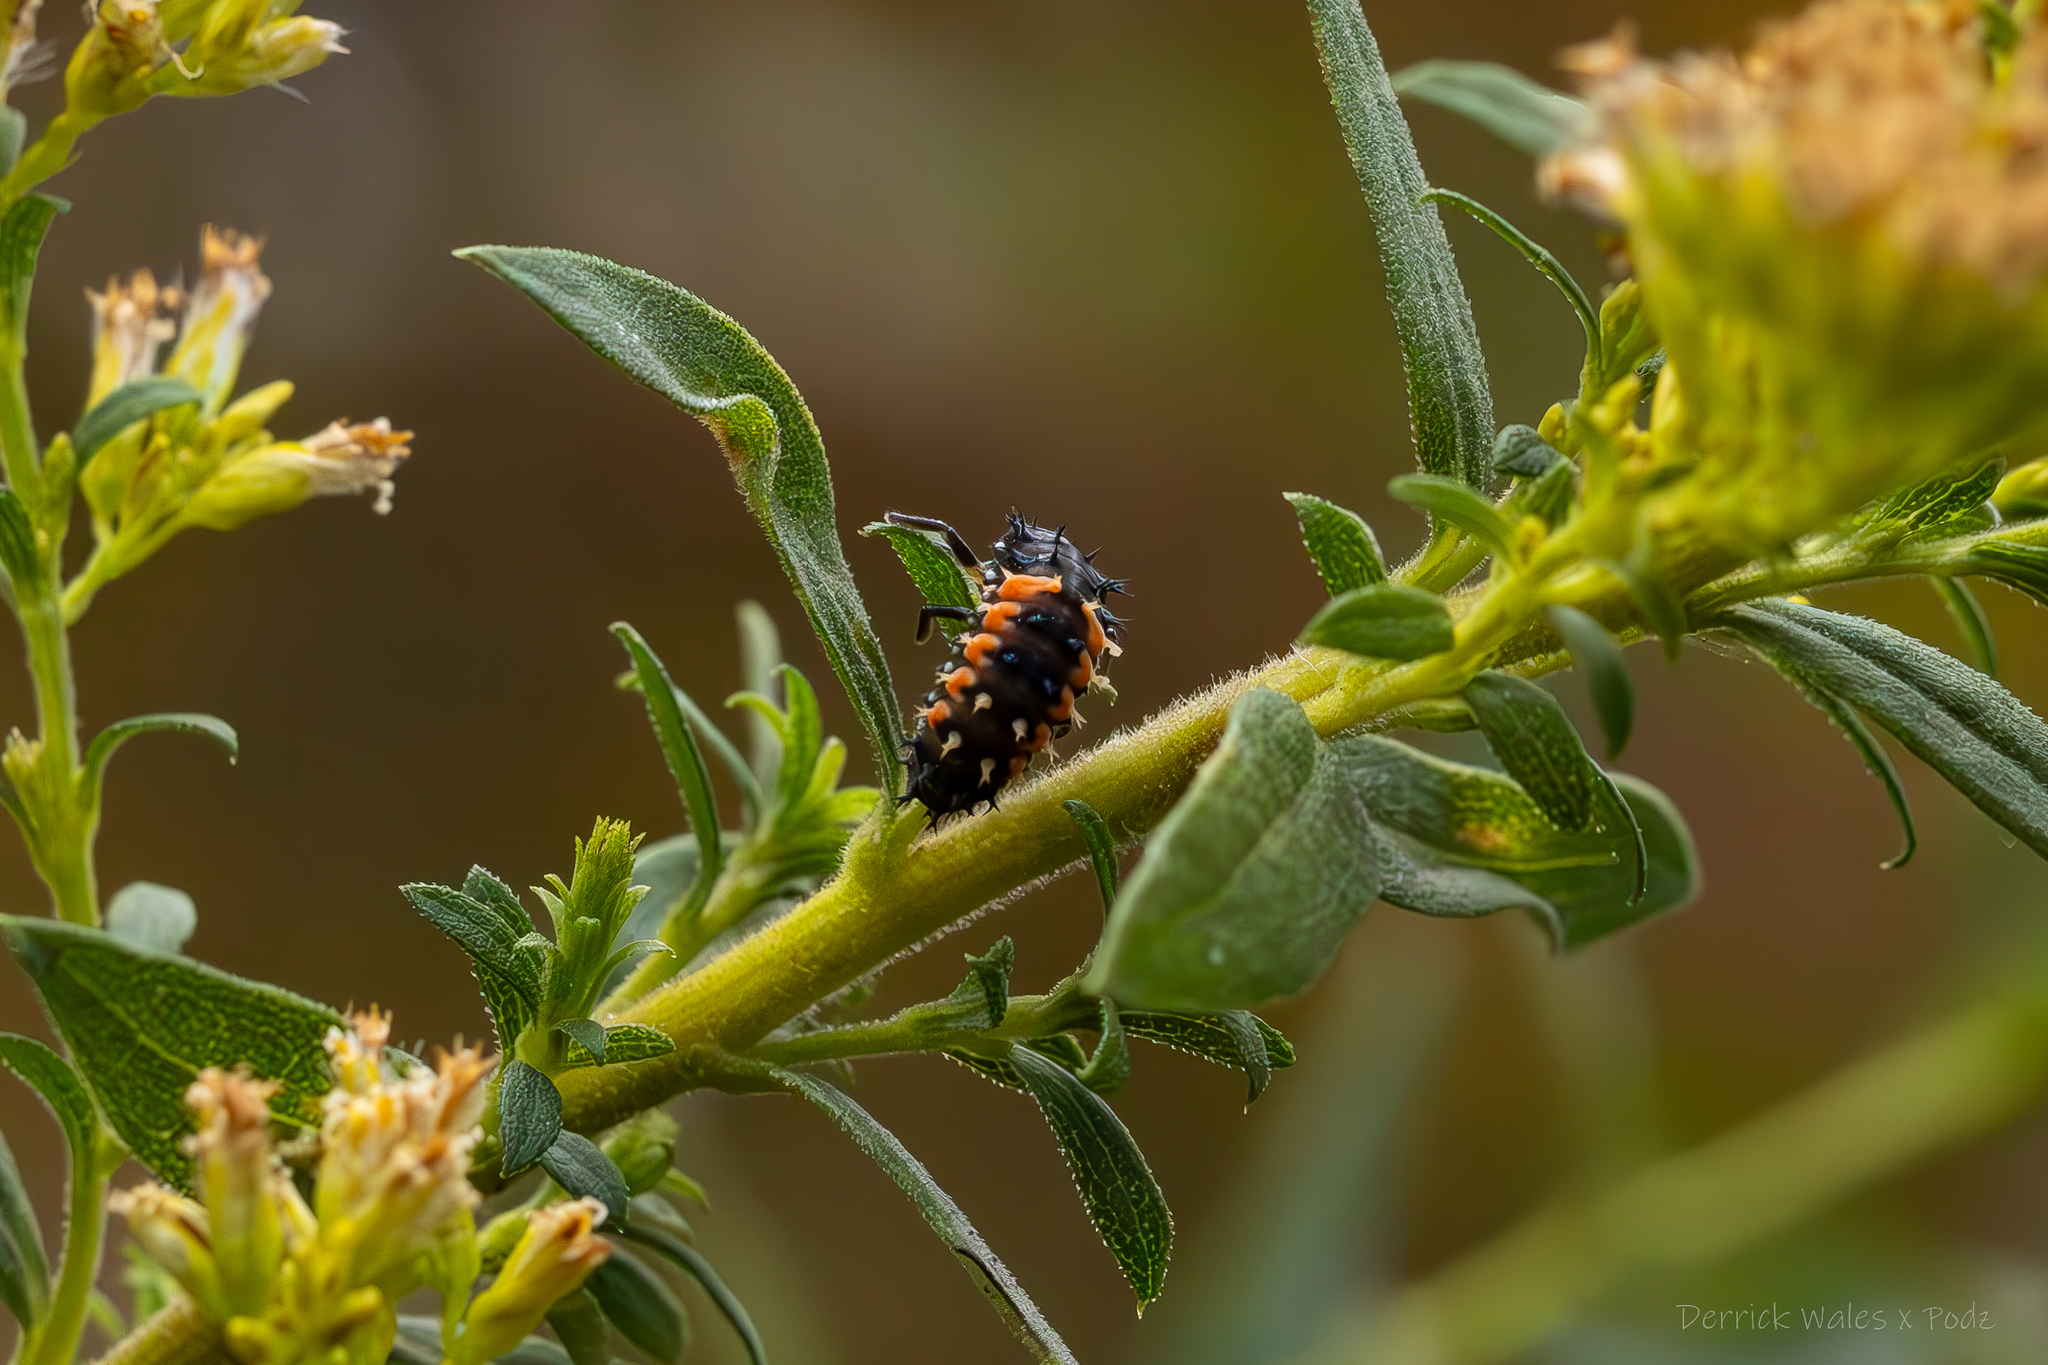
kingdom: Animalia
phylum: Arthropoda
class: Insecta
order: Coleoptera
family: Coccinellidae
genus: Harmonia
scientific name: Harmonia axyridis
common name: Harlequin ladybird
